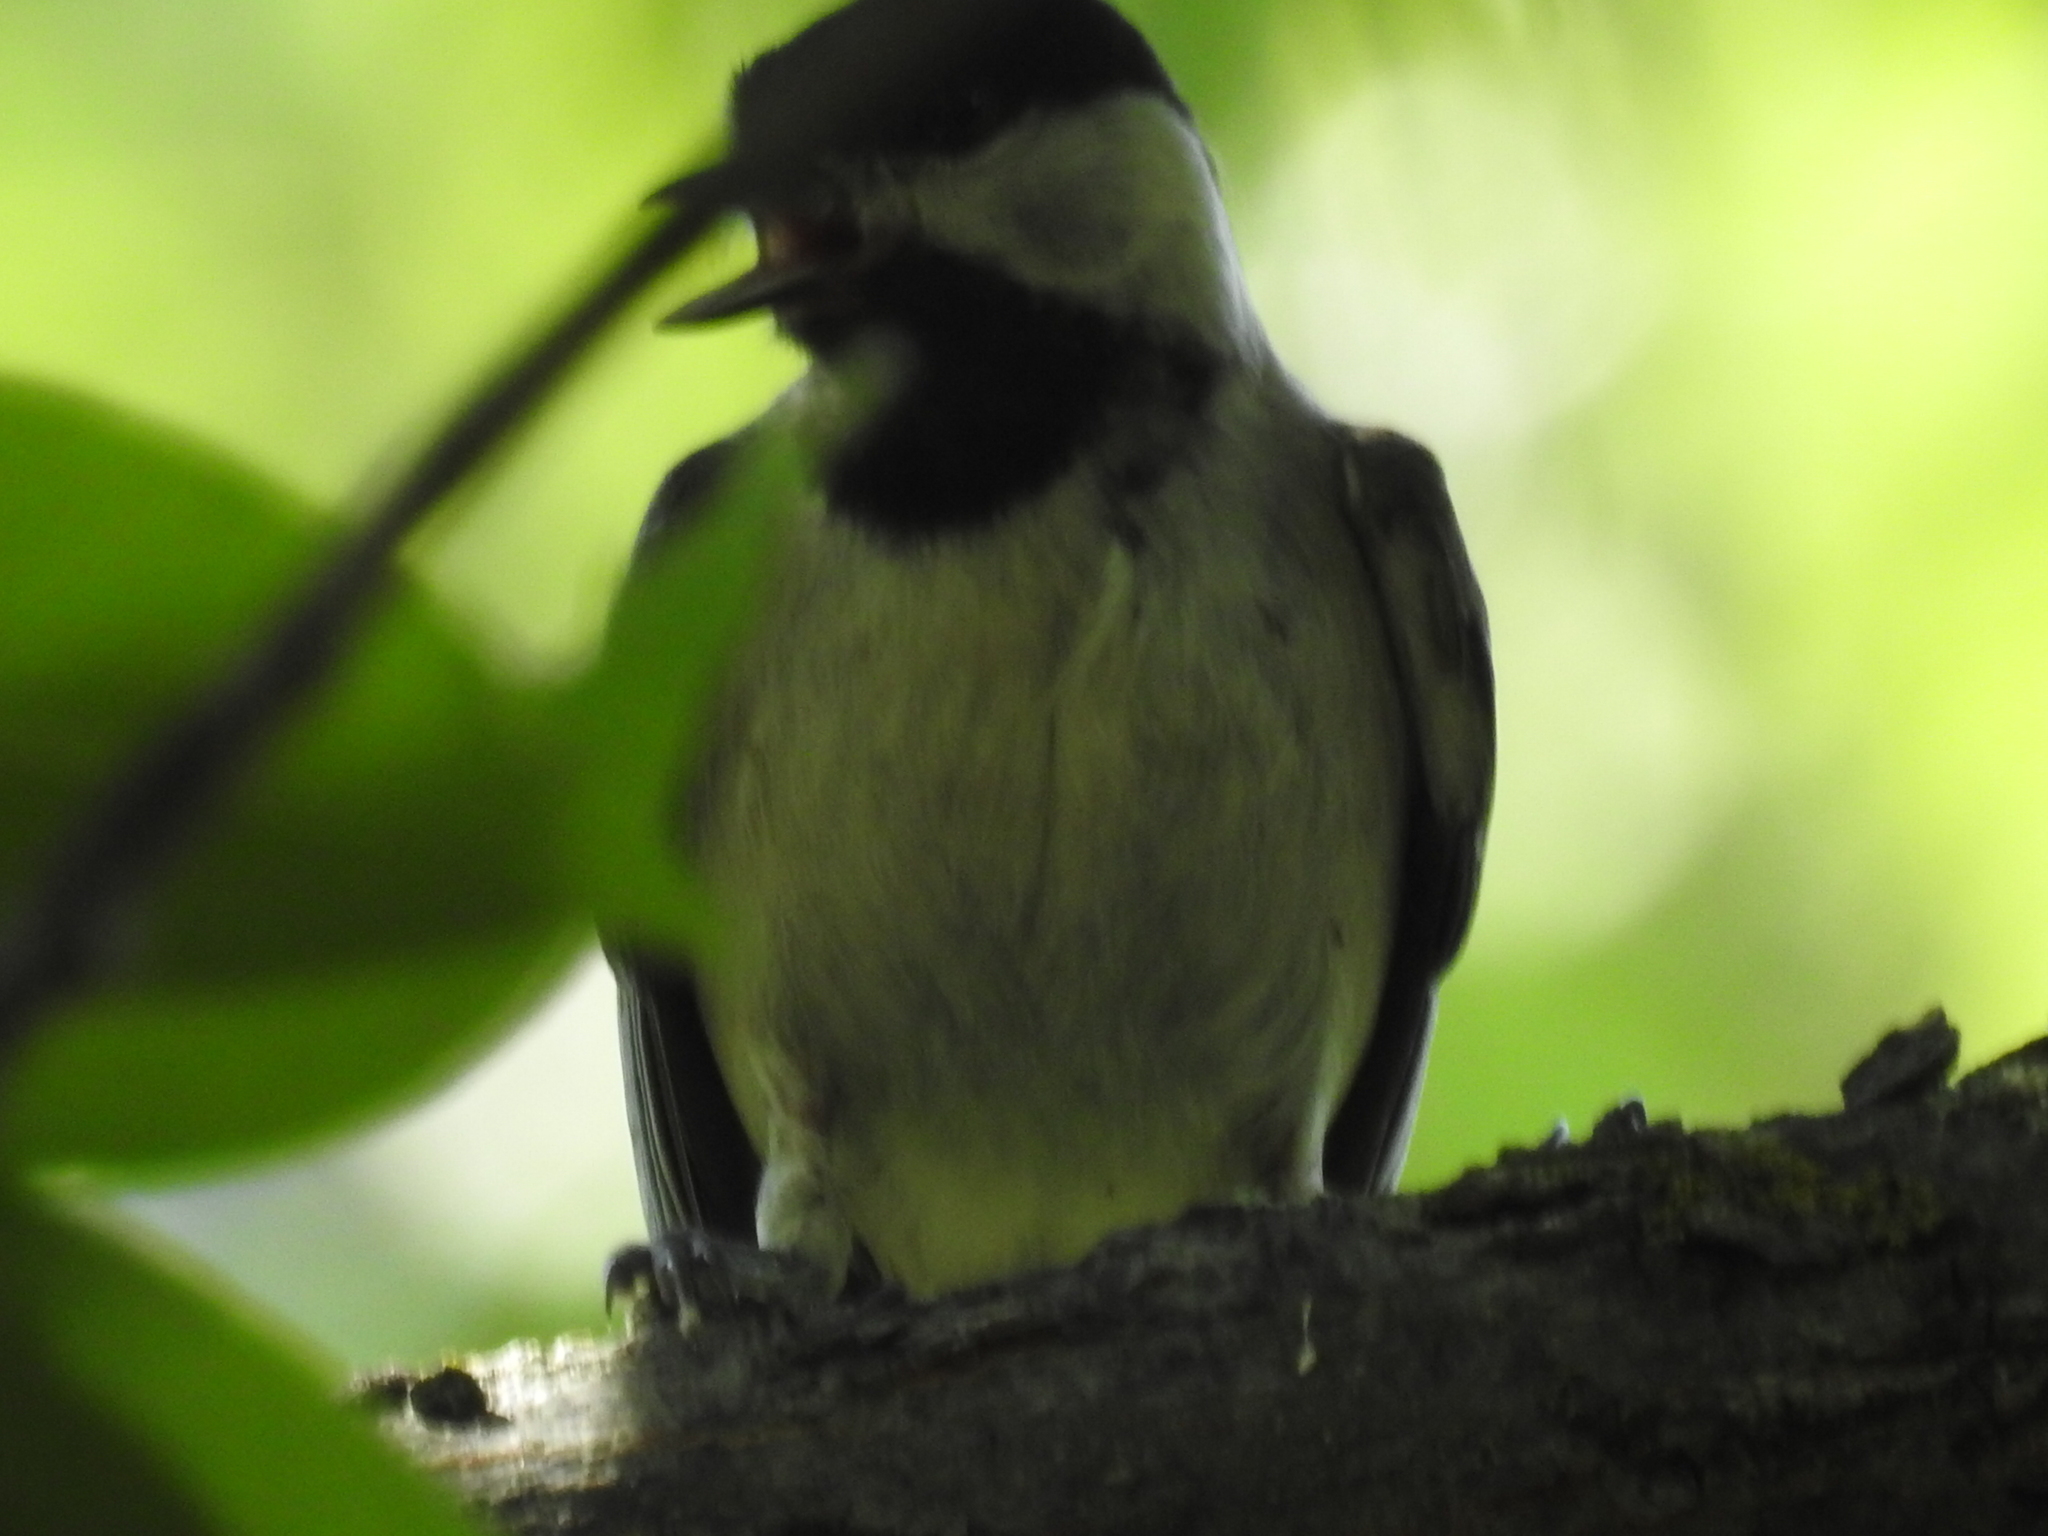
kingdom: Animalia
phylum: Chordata
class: Aves
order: Passeriformes
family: Paridae
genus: Poecile
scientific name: Poecile carolinensis
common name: Carolina chickadee
